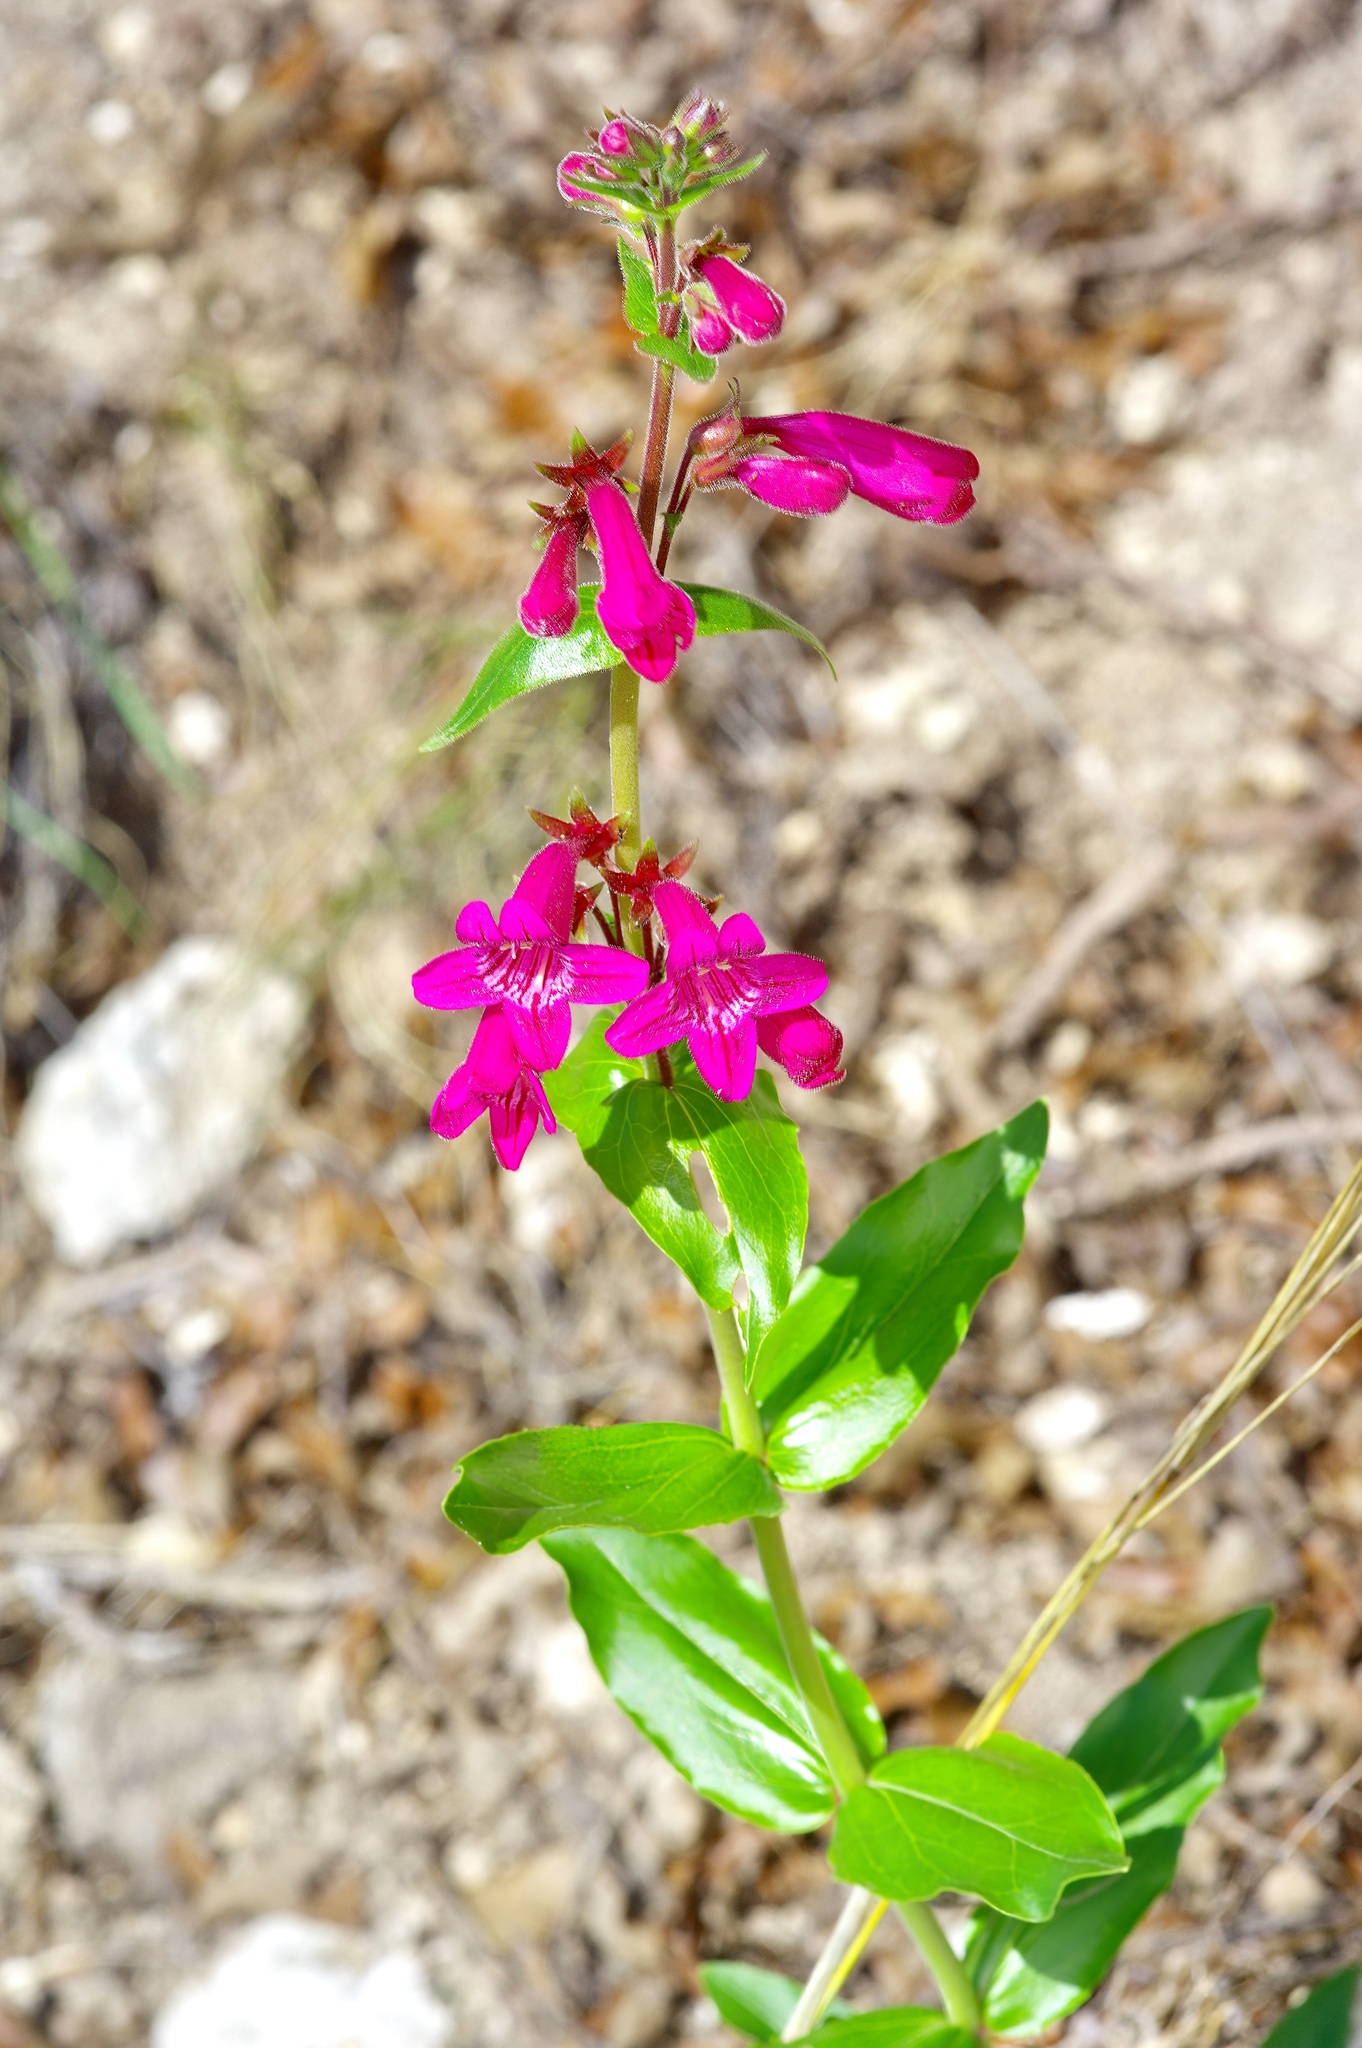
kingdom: Plantae
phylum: Tracheophyta
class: Magnoliopsida
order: Lamiales
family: Plantaginaceae
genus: Penstemon
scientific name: Penstemon triflorus
